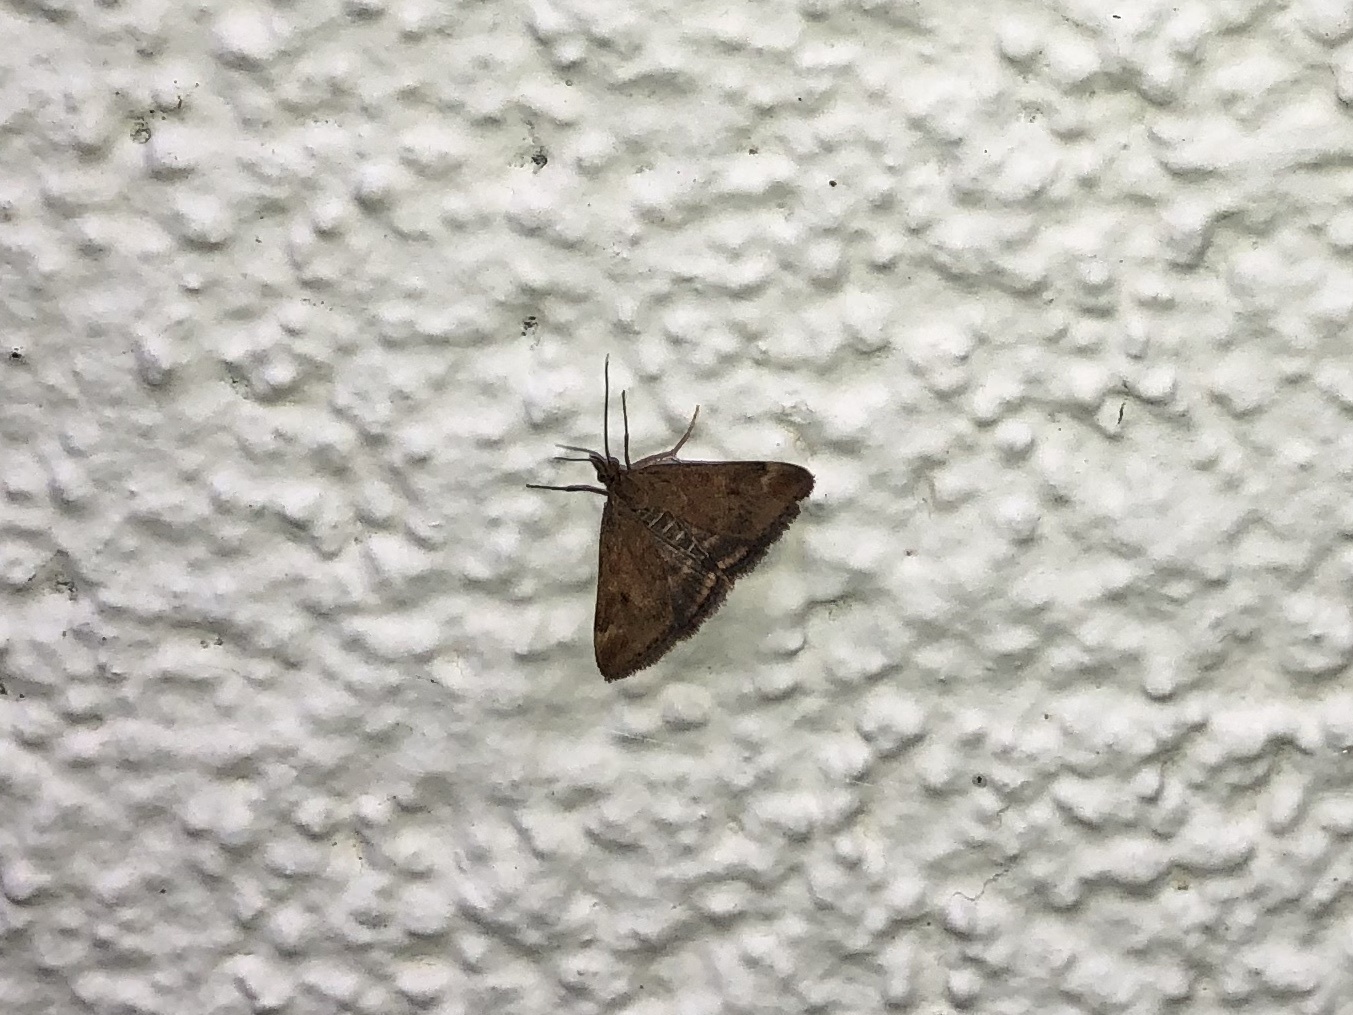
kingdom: Animalia
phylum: Arthropoda
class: Insecta
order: Lepidoptera
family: Crambidae
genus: Pyrausta
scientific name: Pyrausta despicata
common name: Straw-barred pearl
